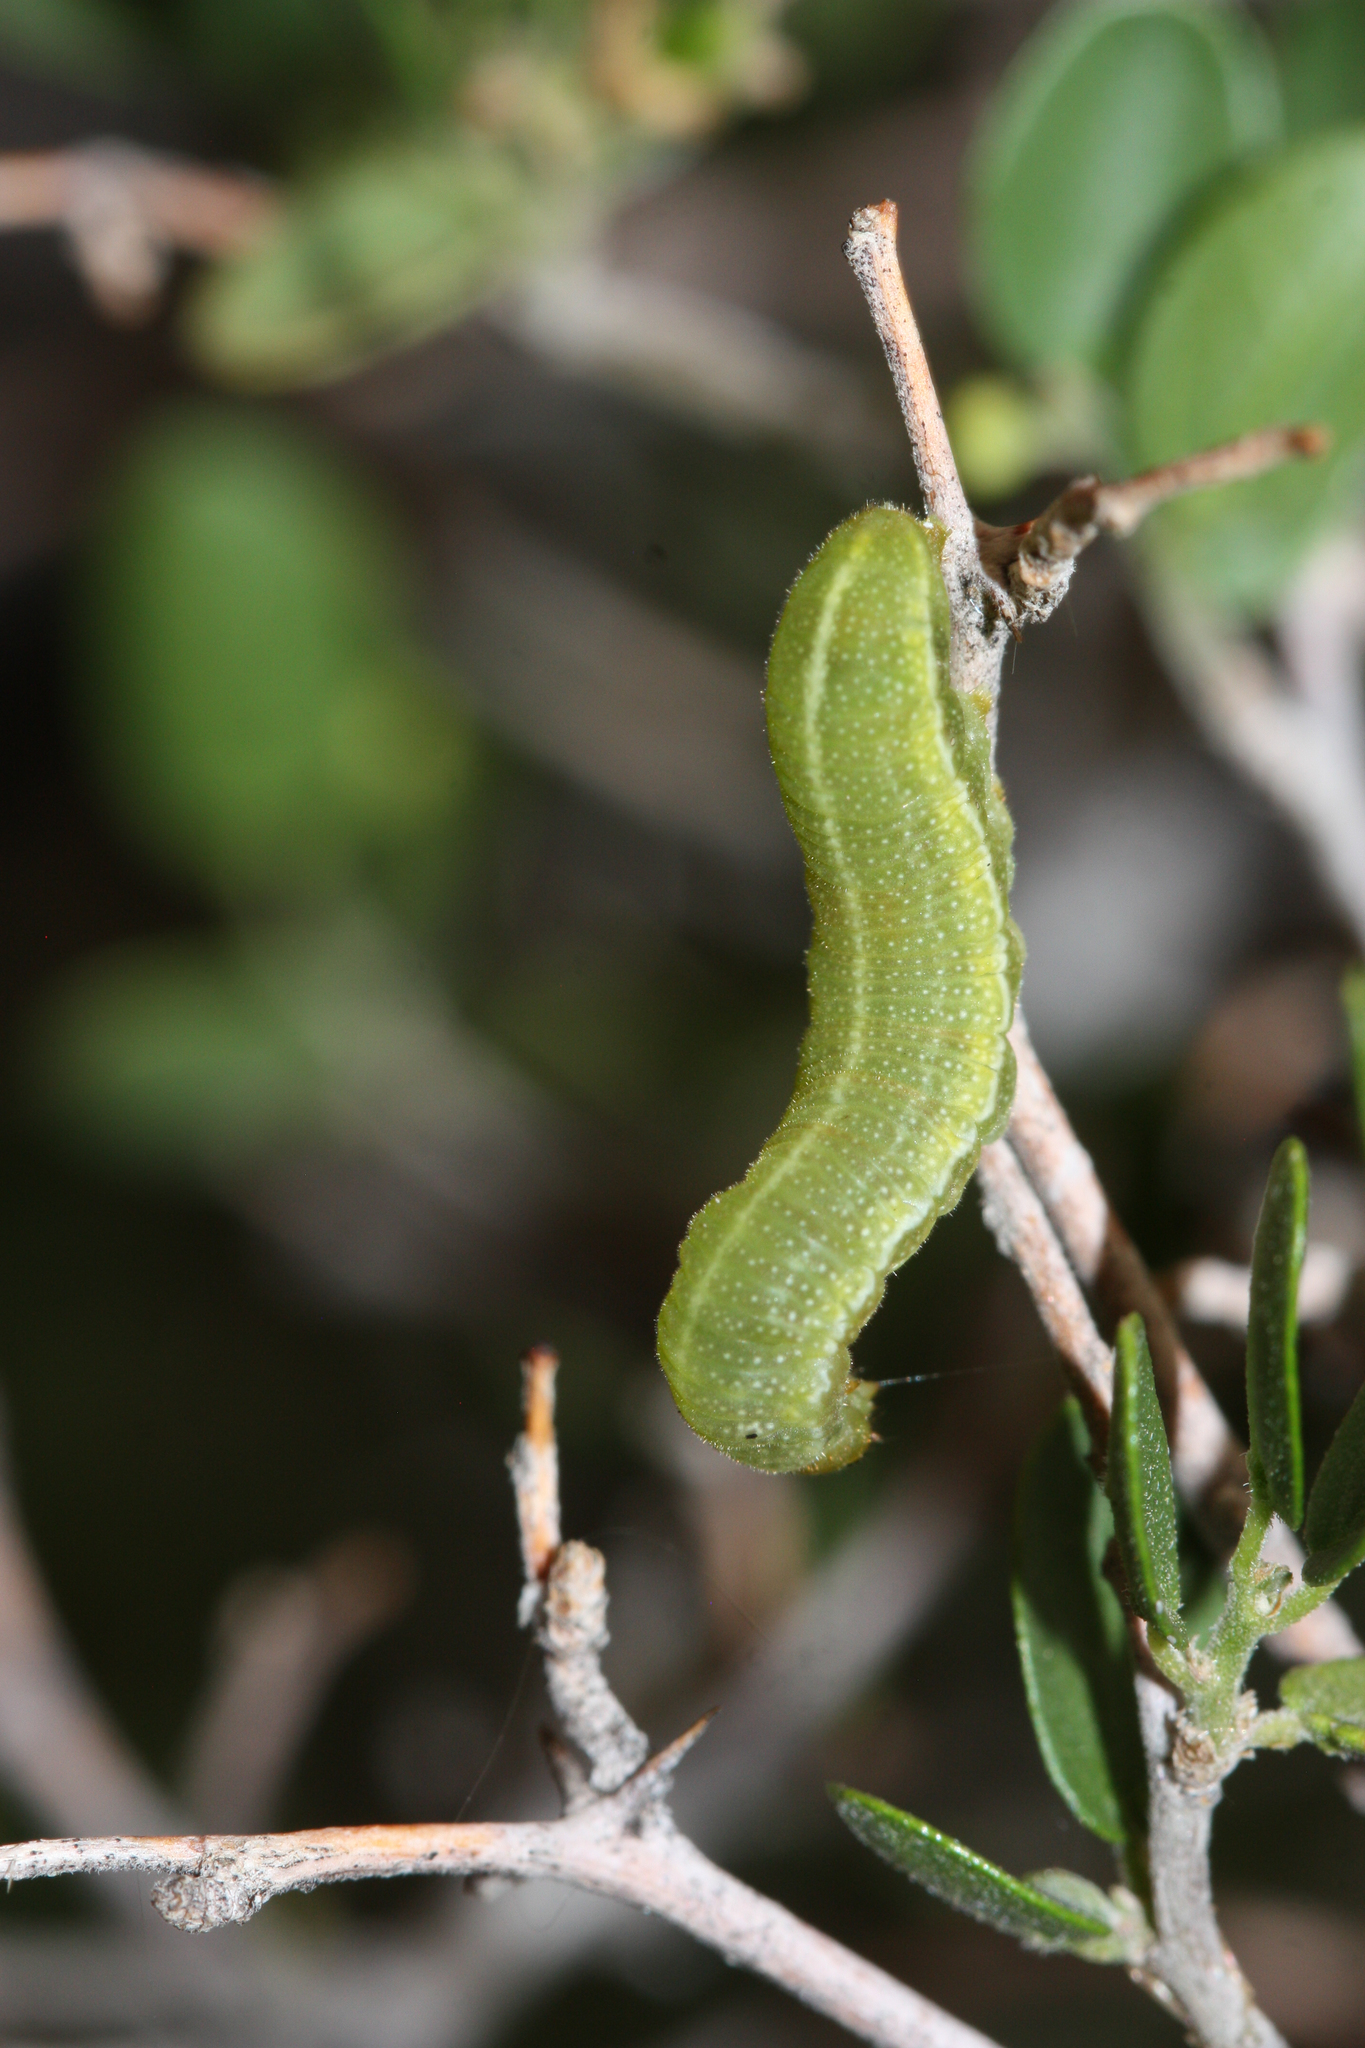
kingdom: Animalia
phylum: Arthropoda
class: Insecta
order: Lepidoptera
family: Nymphalidae
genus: Libytheana
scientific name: Libytheana carinenta
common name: American snout
